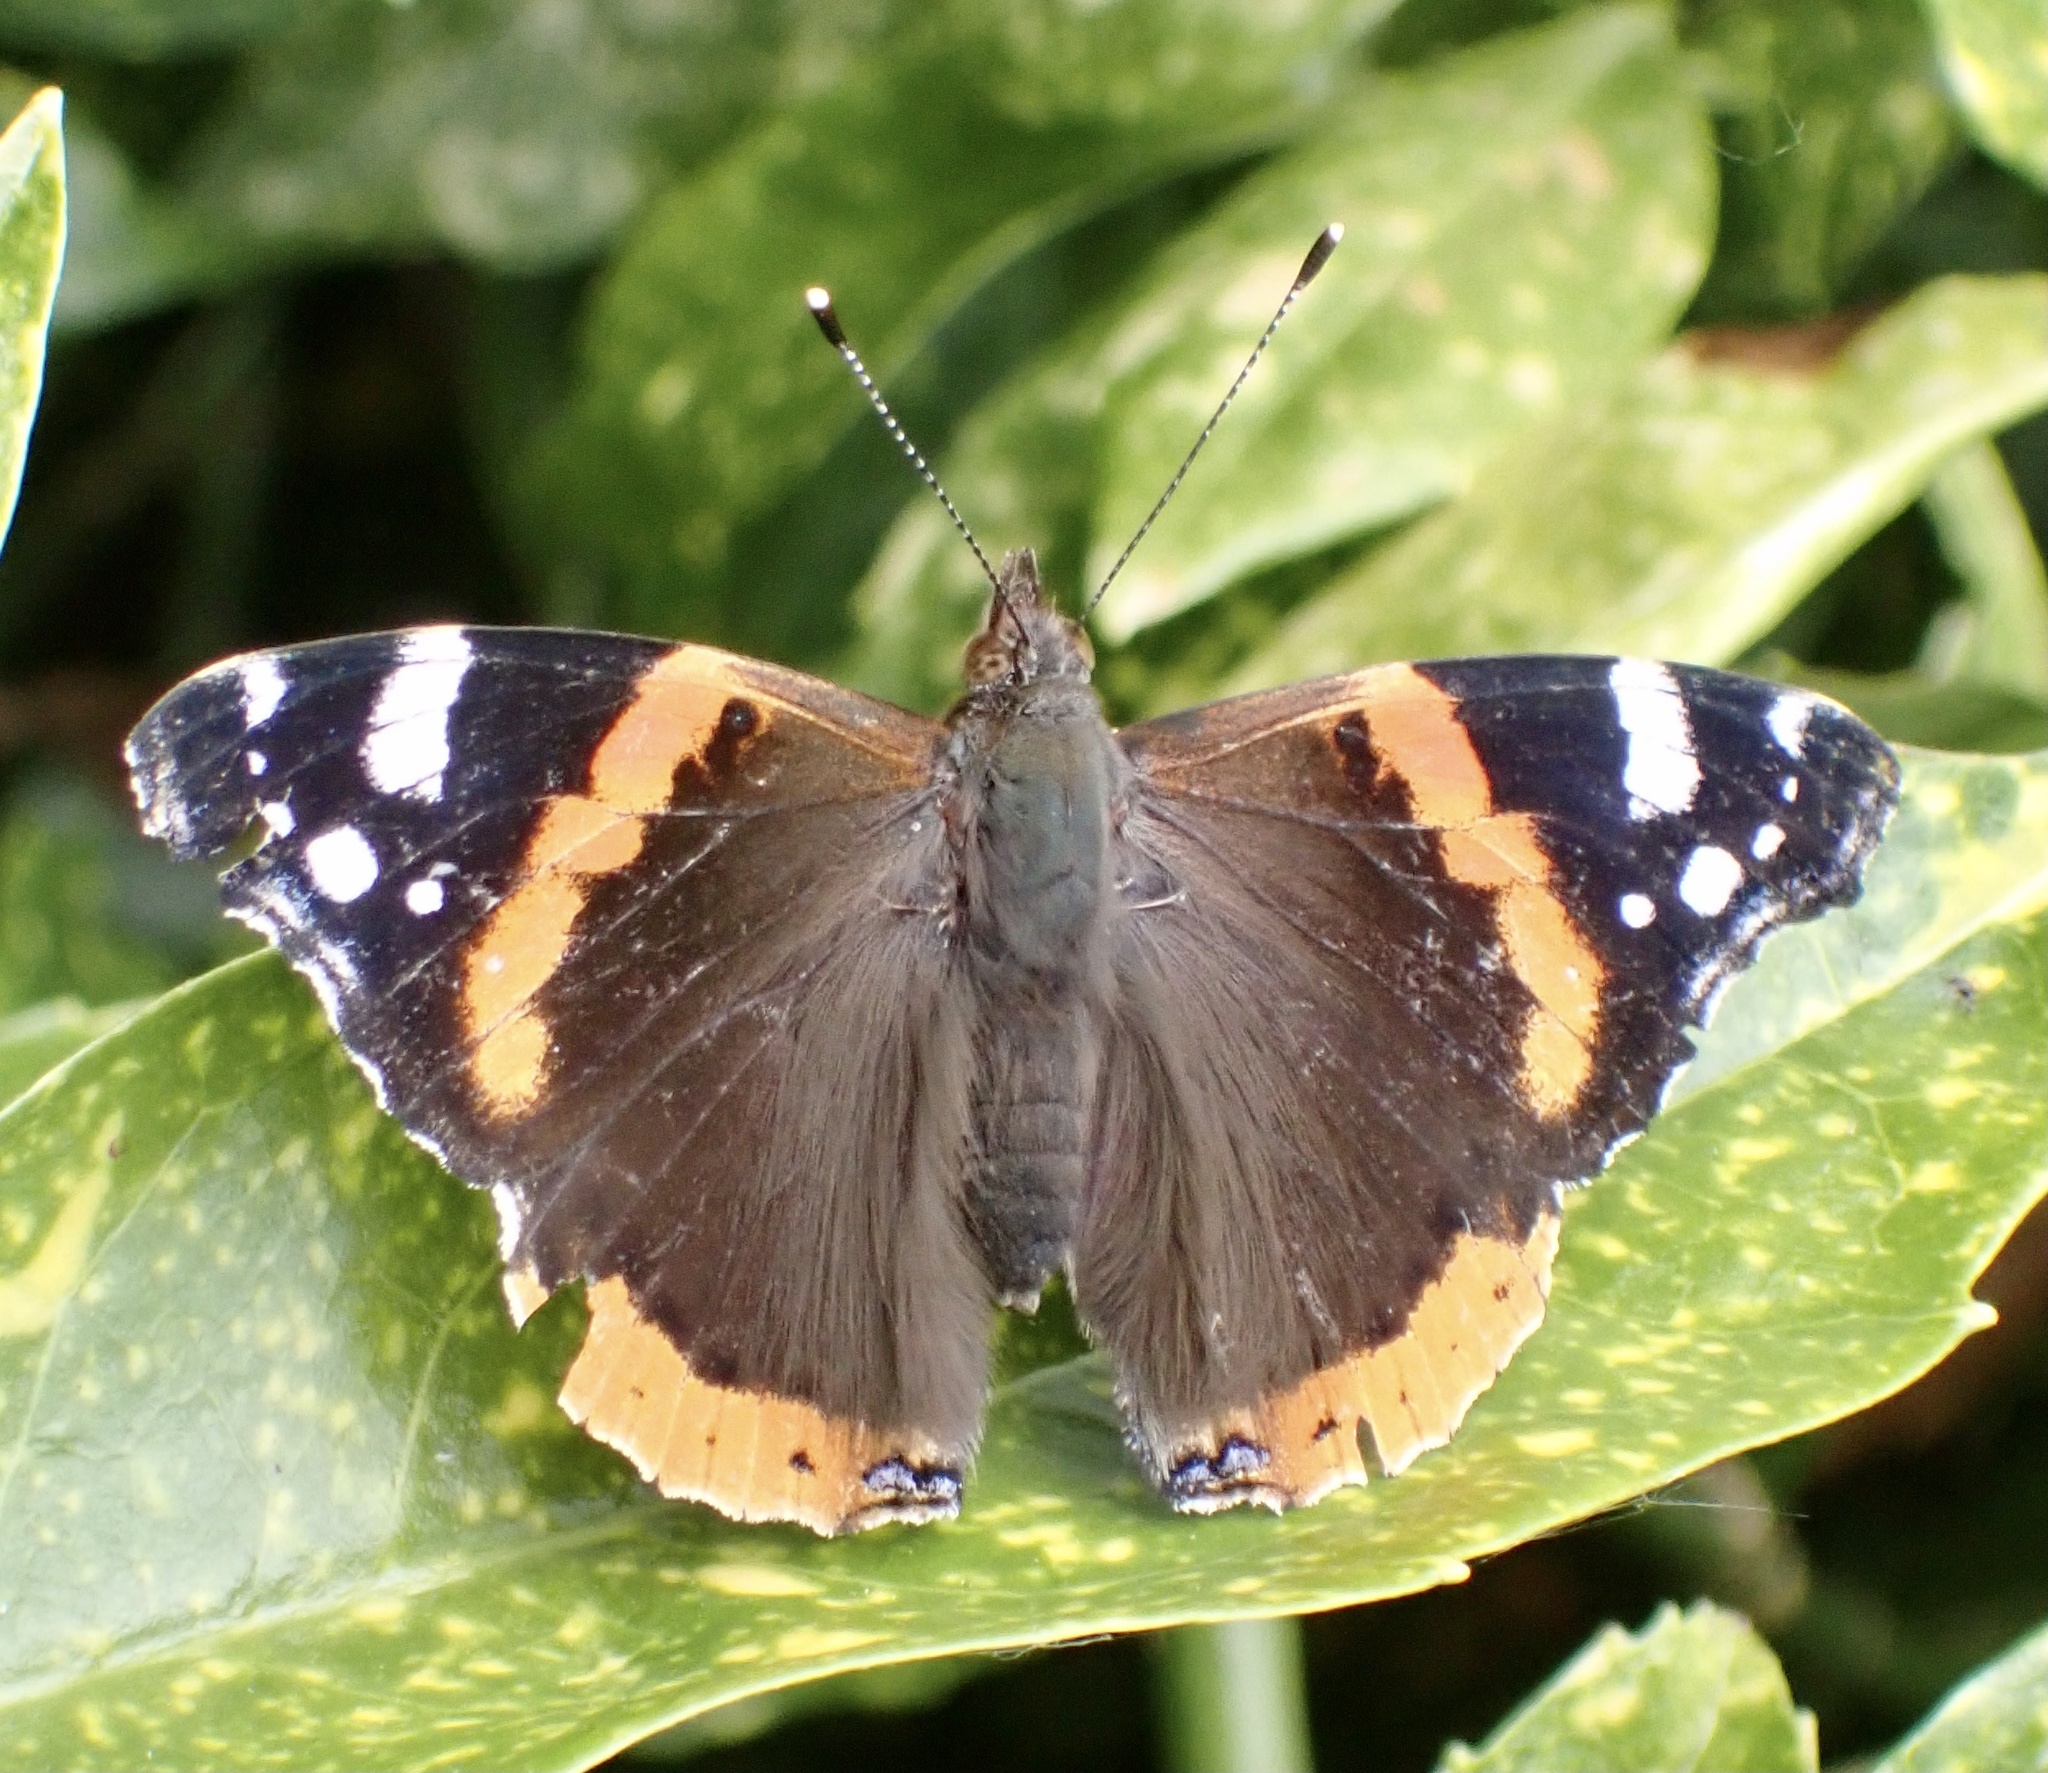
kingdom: Animalia
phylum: Arthropoda
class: Insecta
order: Lepidoptera
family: Nymphalidae
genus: Vanessa
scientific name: Vanessa atalanta
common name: Red admiral
